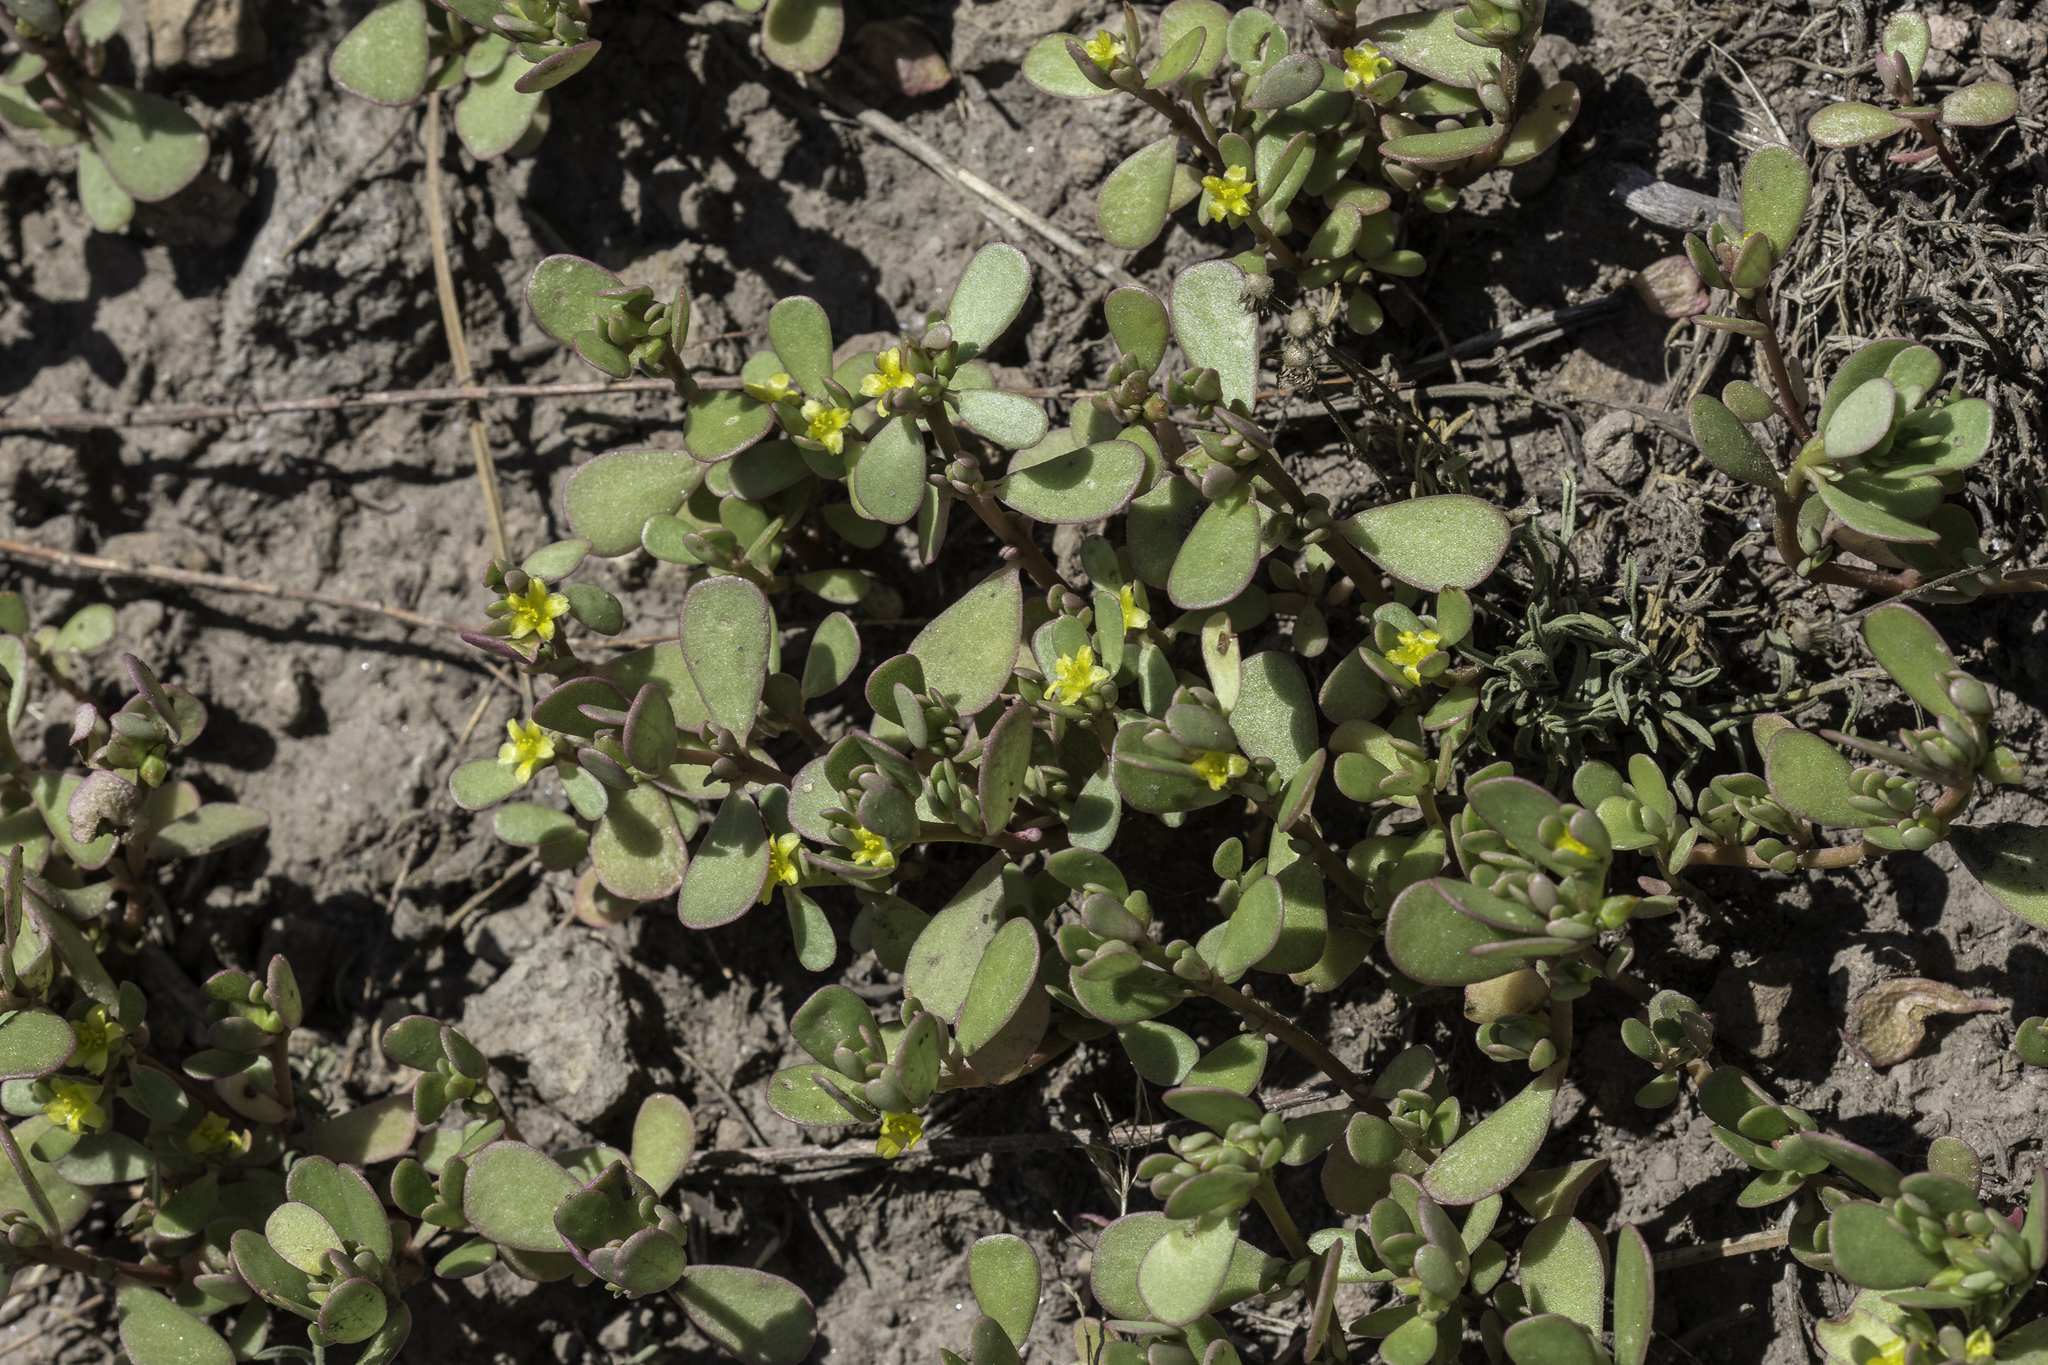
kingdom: Plantae
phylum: Tracheophyta
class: Magnoliopsida
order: Caryophyllales
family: Portulacaceae
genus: Portulaca
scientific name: Portulaca oleracea
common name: Common purslane
